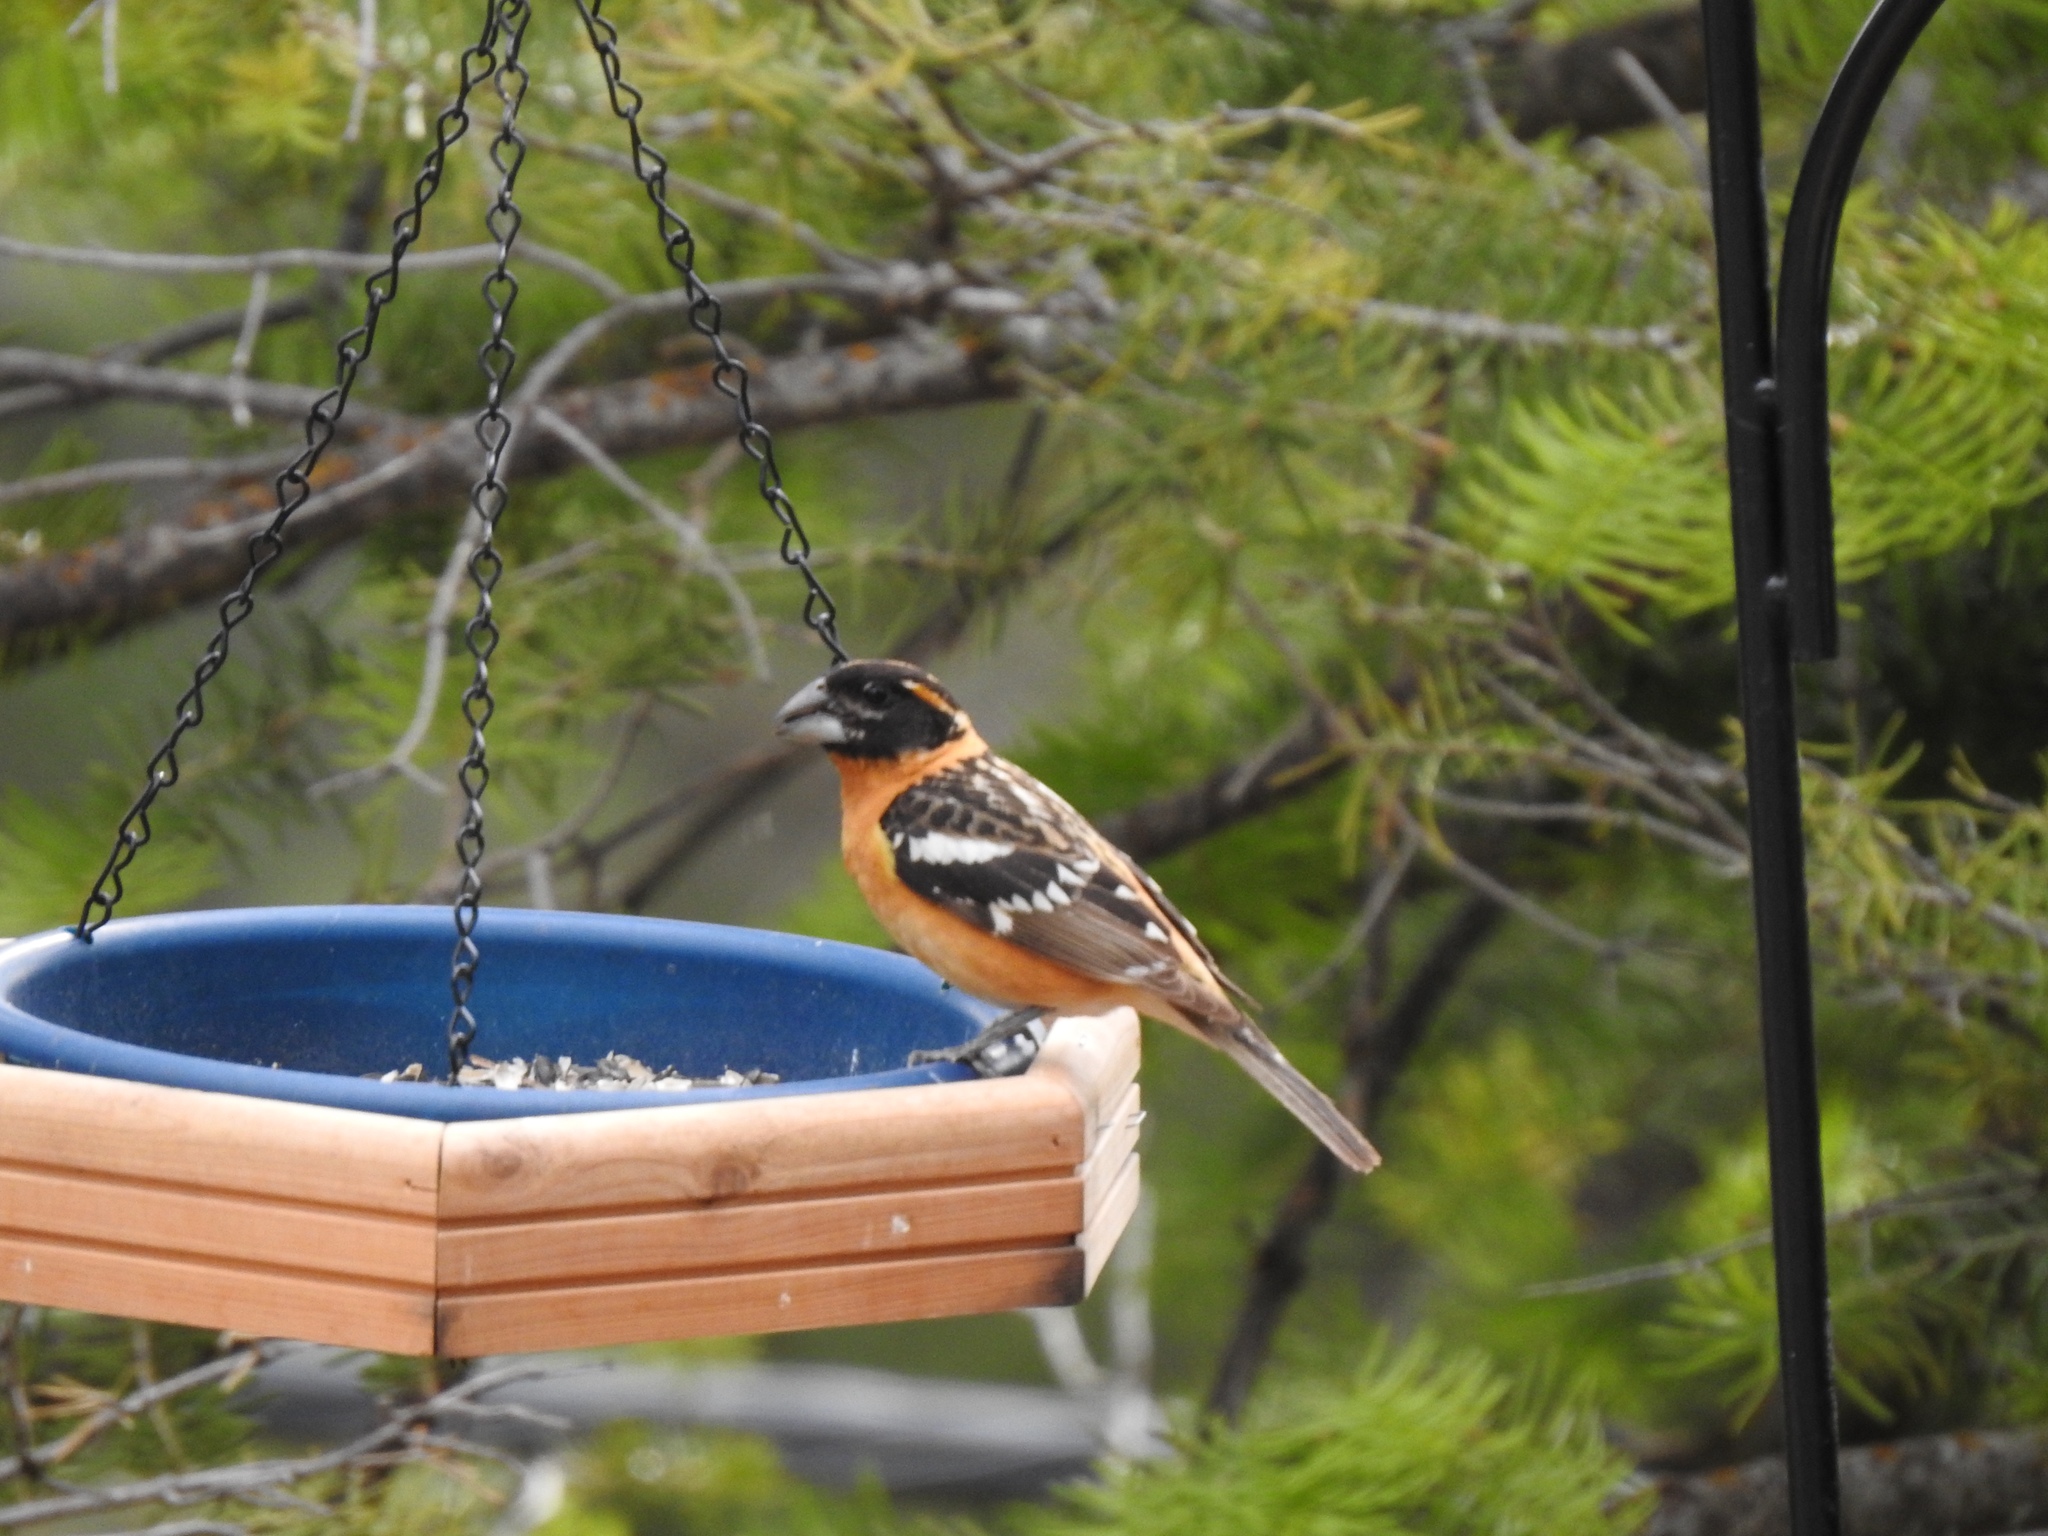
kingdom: Animalia
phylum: Chordata
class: Aves
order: Passeriformes
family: Cardinalidae
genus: Pheucticus
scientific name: Pheucticus melanocephalus
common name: Black-headed grosbeak
